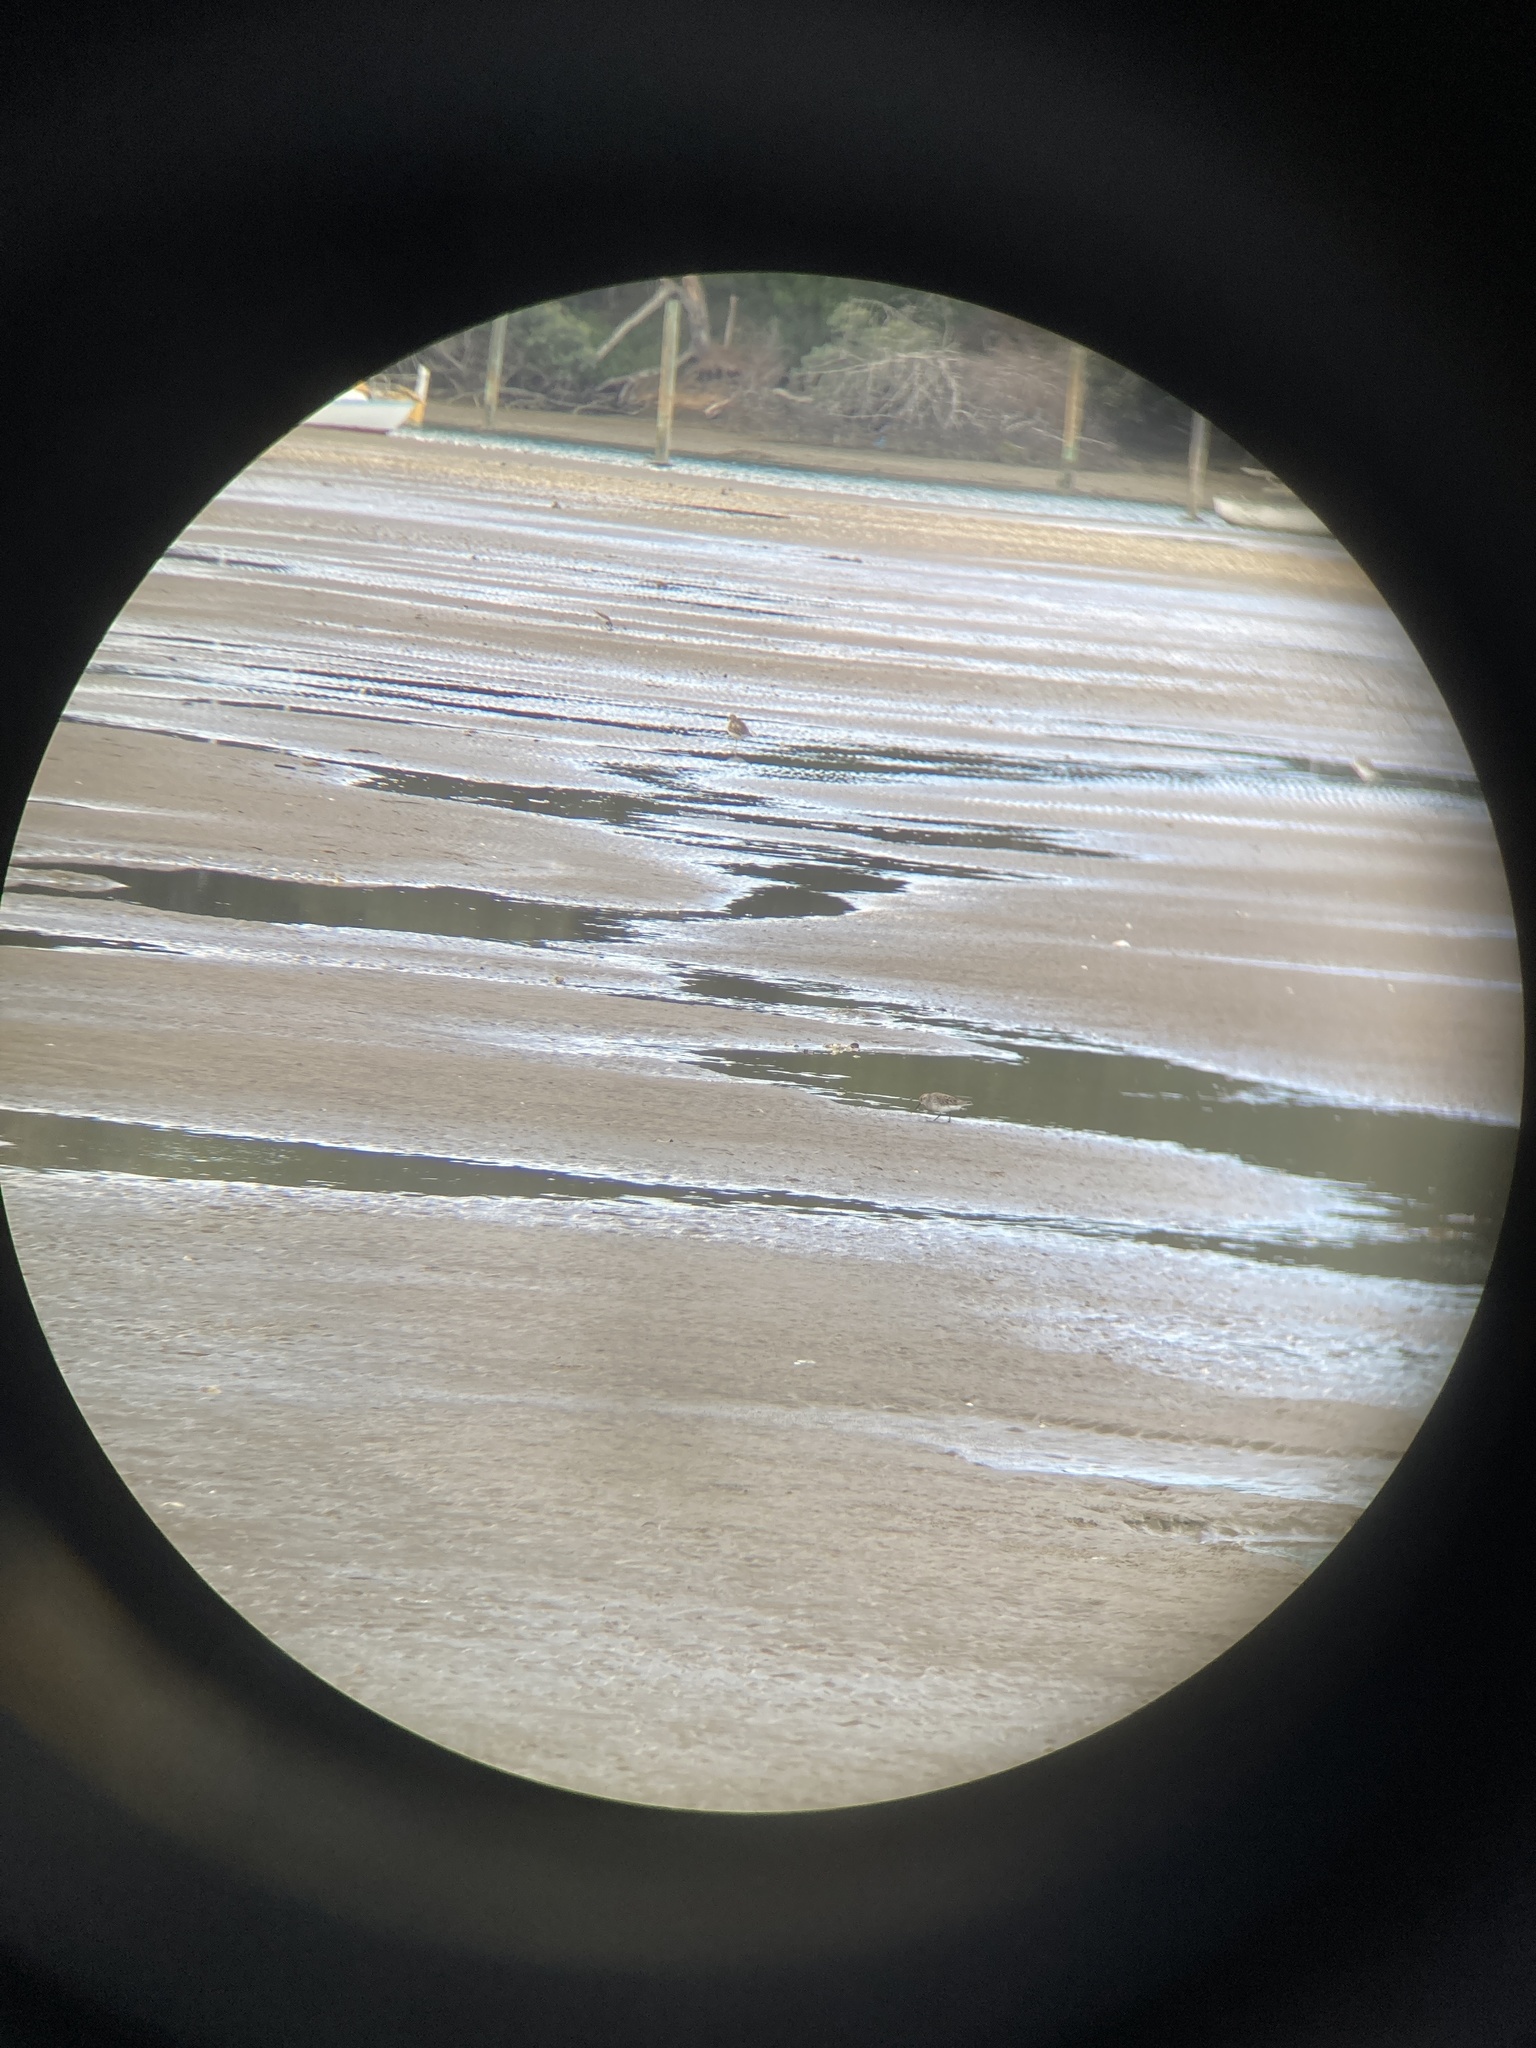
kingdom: Animalia
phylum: Chordata
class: Aves
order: Charadriiformes
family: Scolopacidae
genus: Calidris
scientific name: Calidris mauri
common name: Western sandpiper
